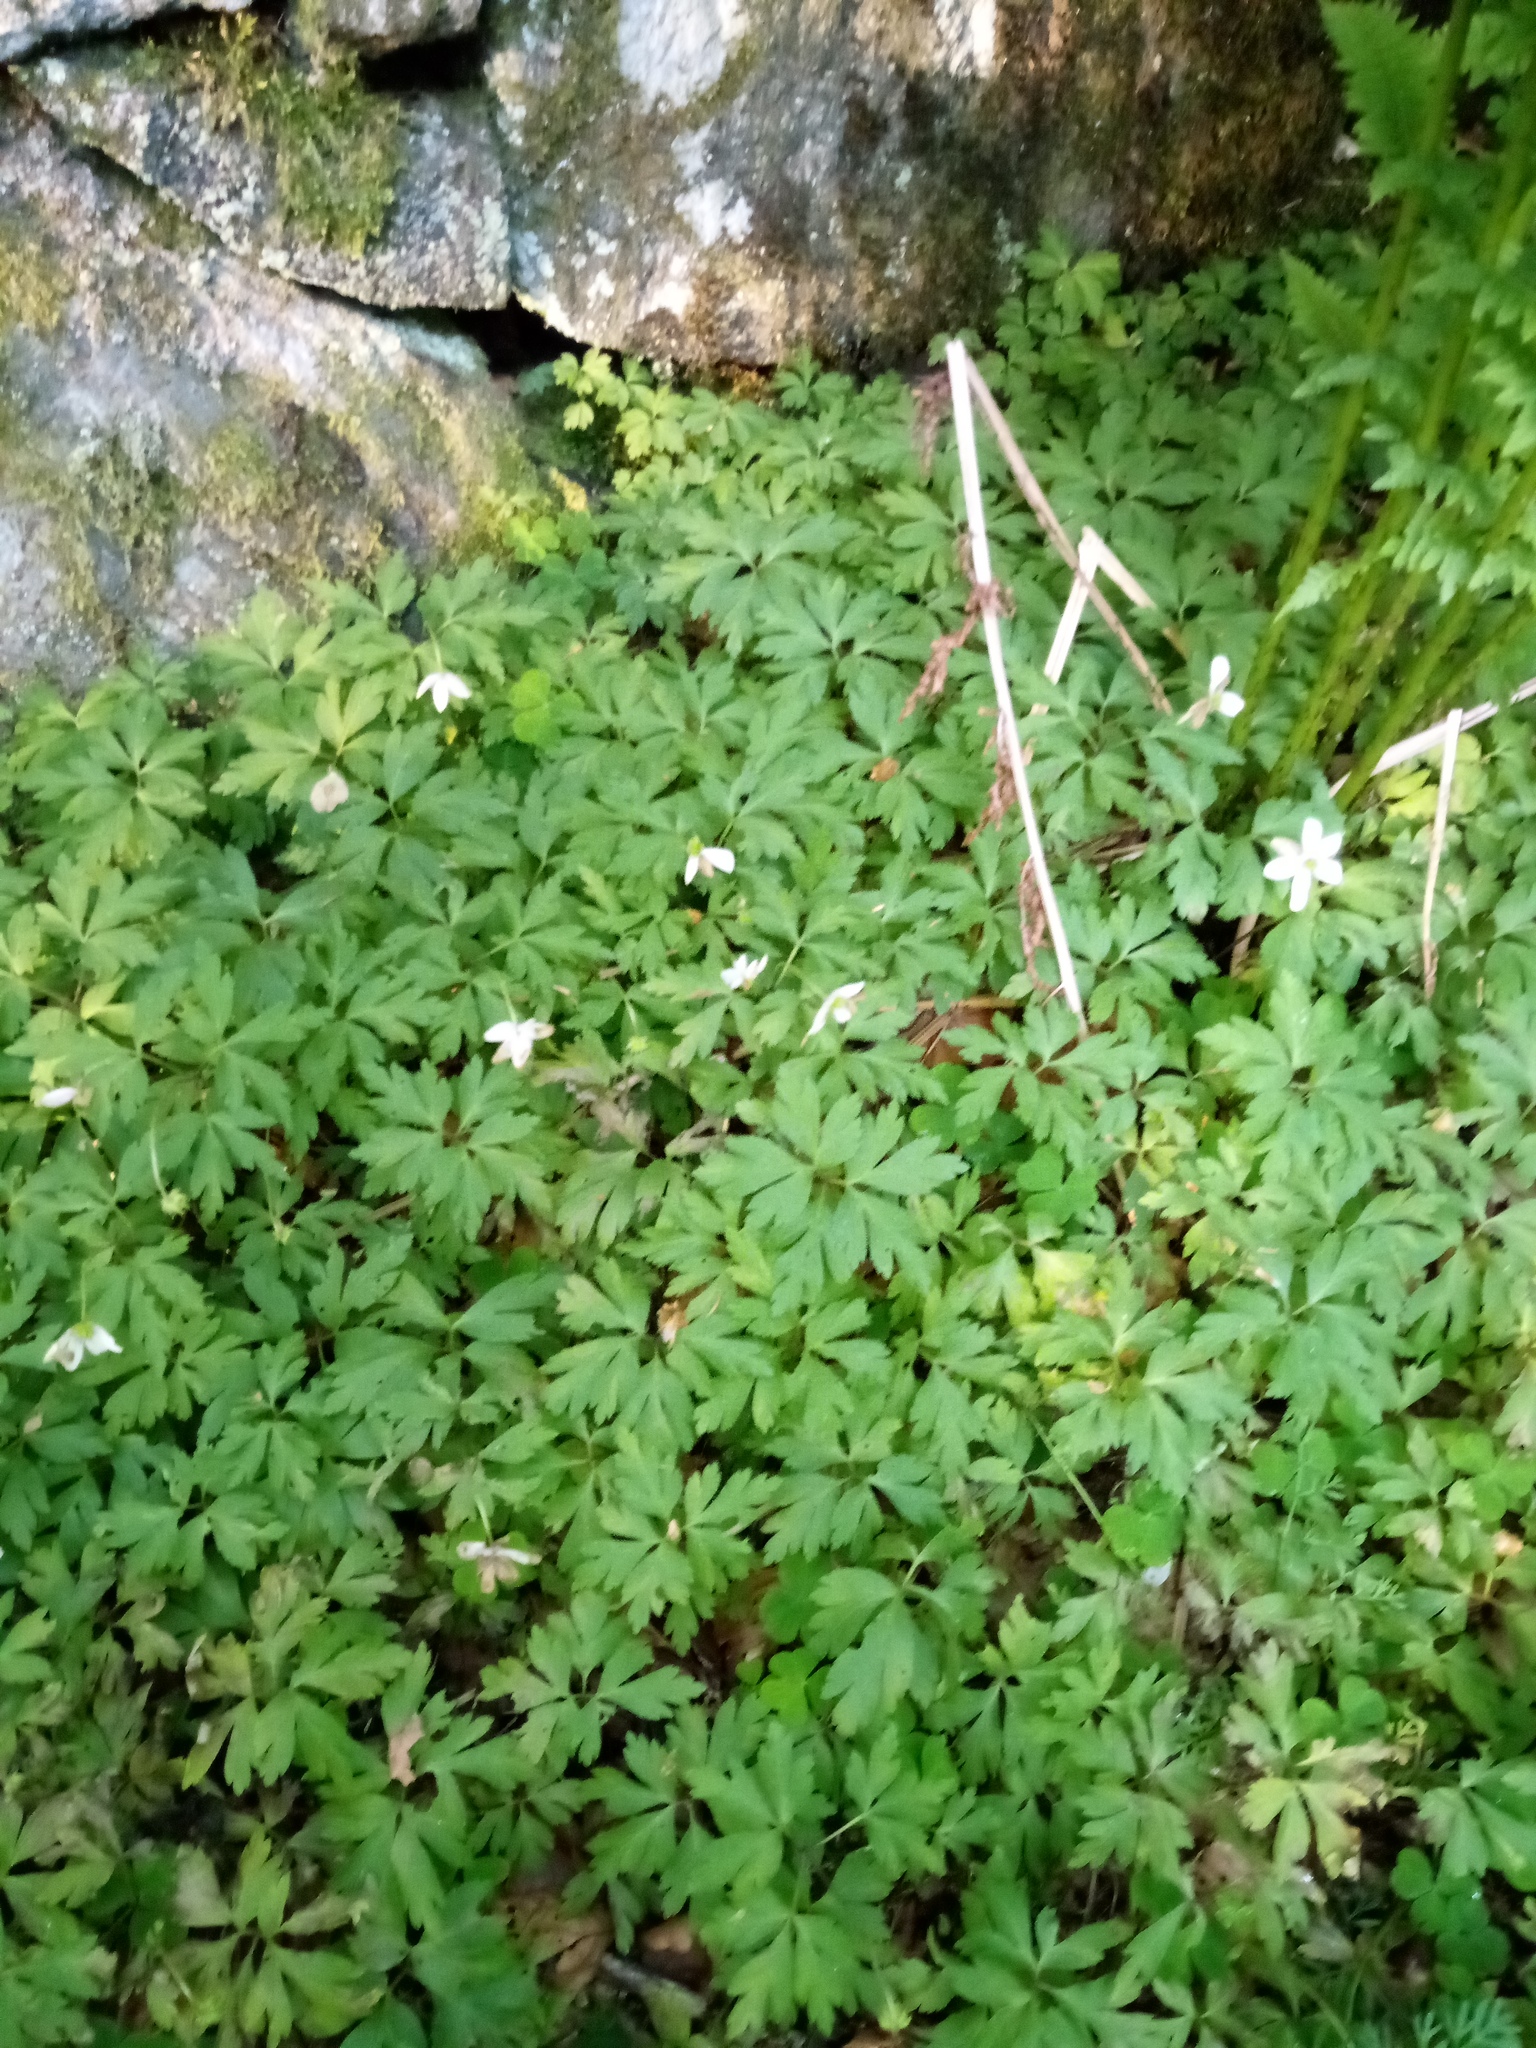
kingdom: Plantae
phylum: Tracheophyta
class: Magnoliopsida
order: Ranunculales
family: Ranunculaceae
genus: Anemone
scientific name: Anemone nemorosa
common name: Wood anemone
